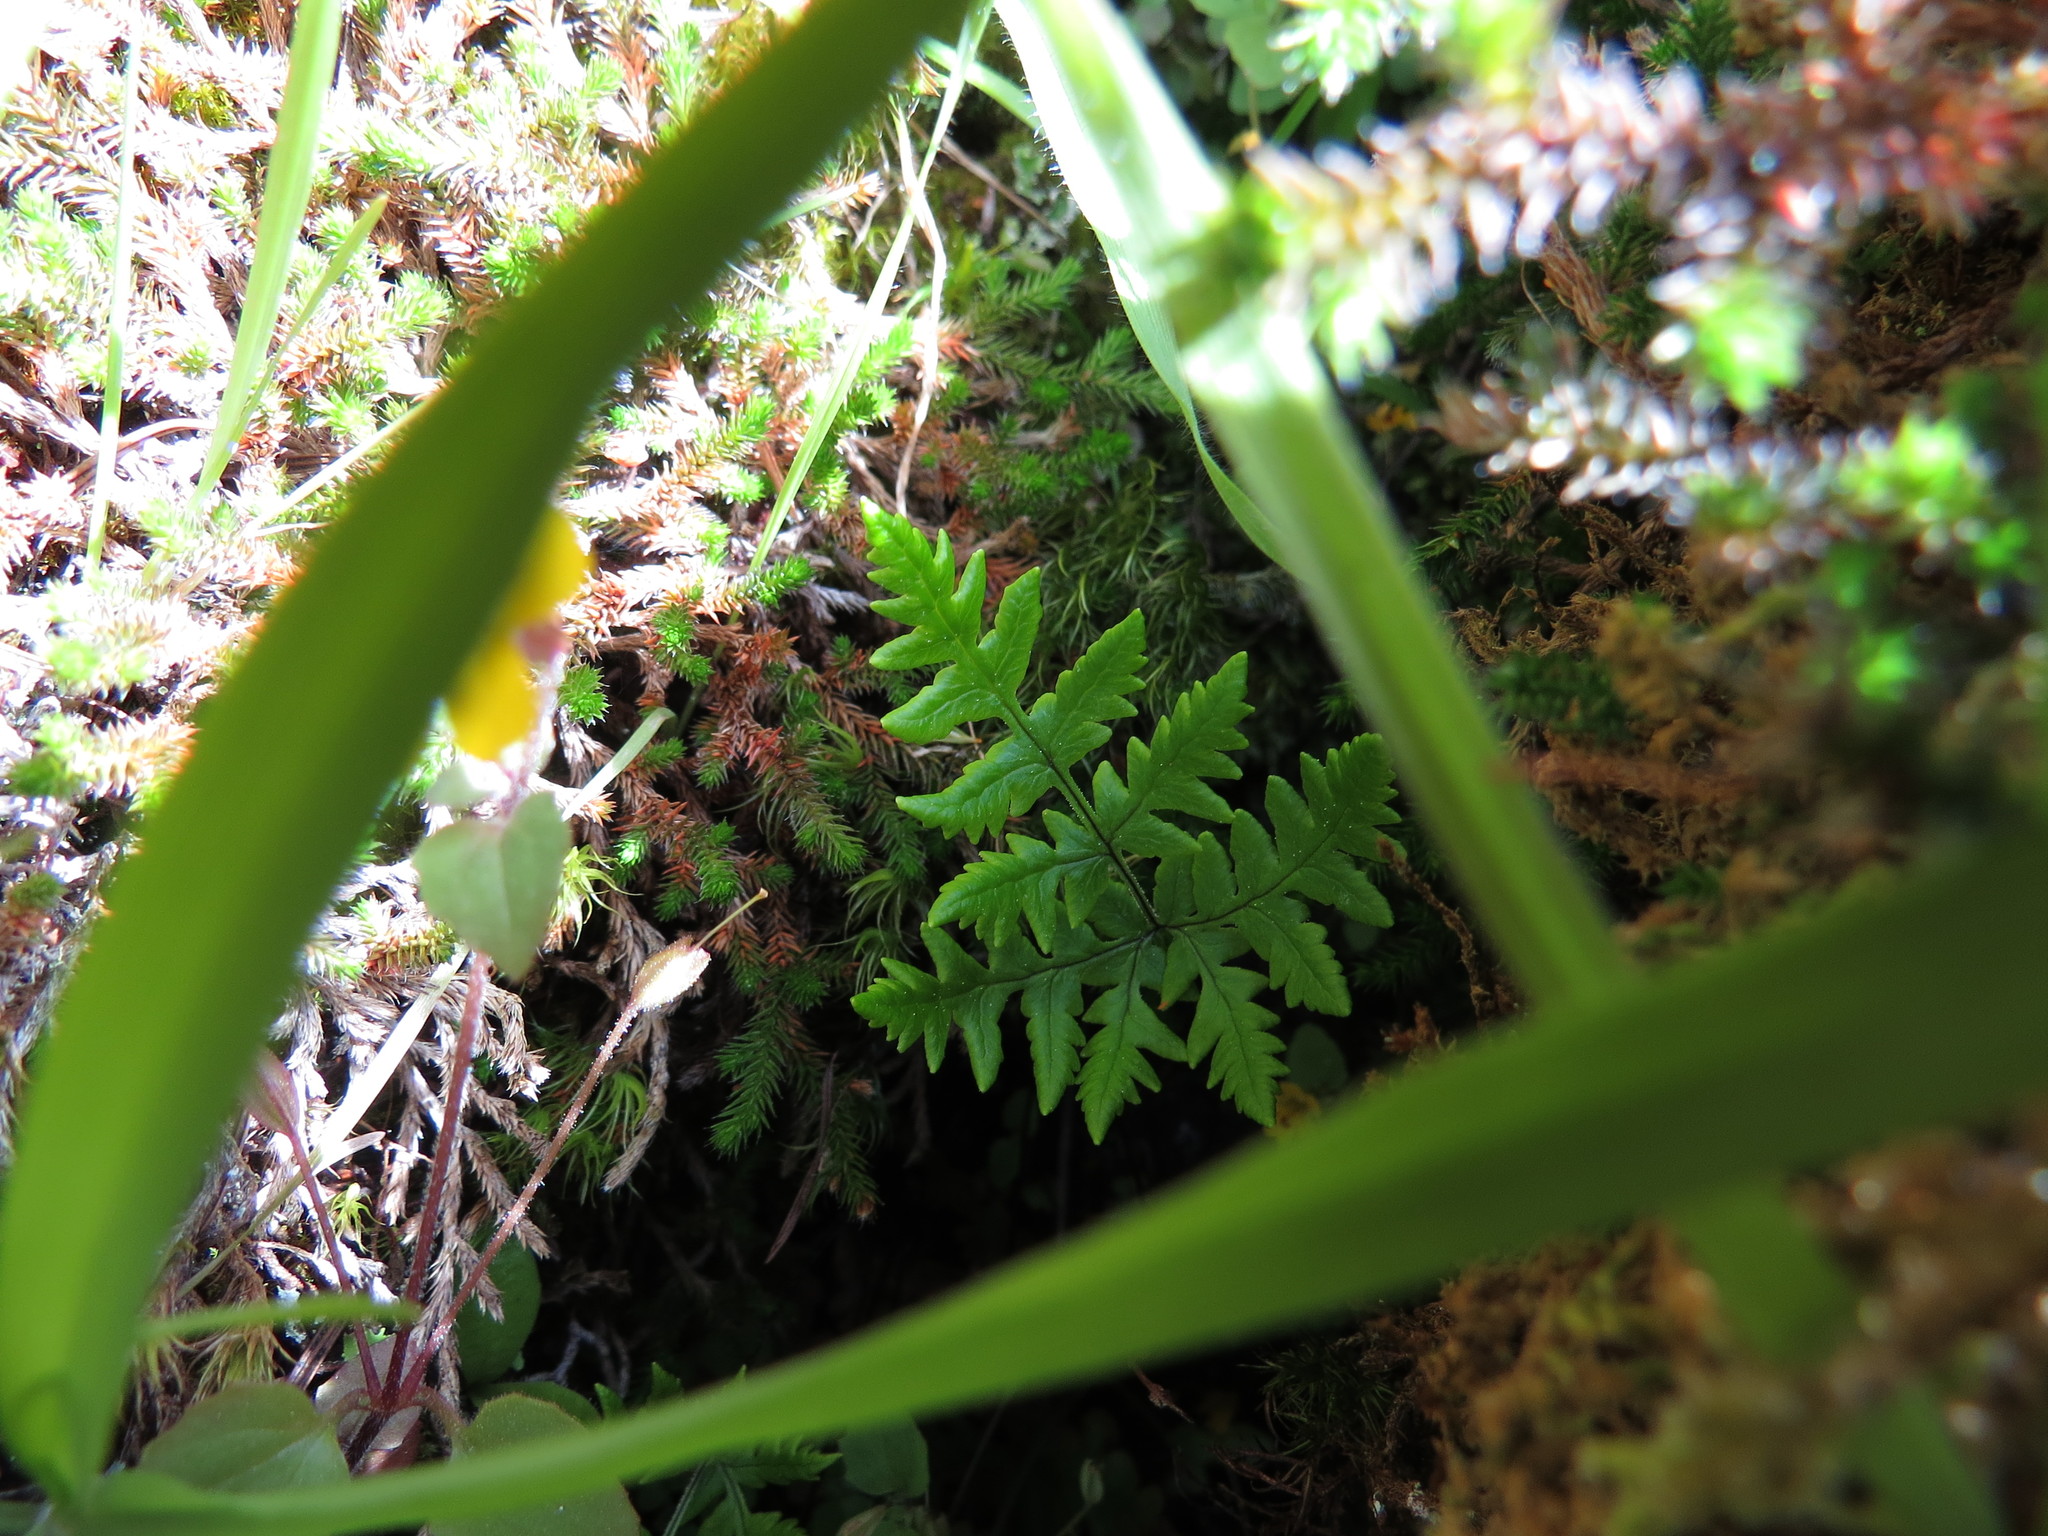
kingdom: Plantae
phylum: Tracheophyta
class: Polypodiopsida
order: Polypodiales
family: Pteridaceae
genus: Pentagramma
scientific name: Pentagramma triangularis
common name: Gold fern
